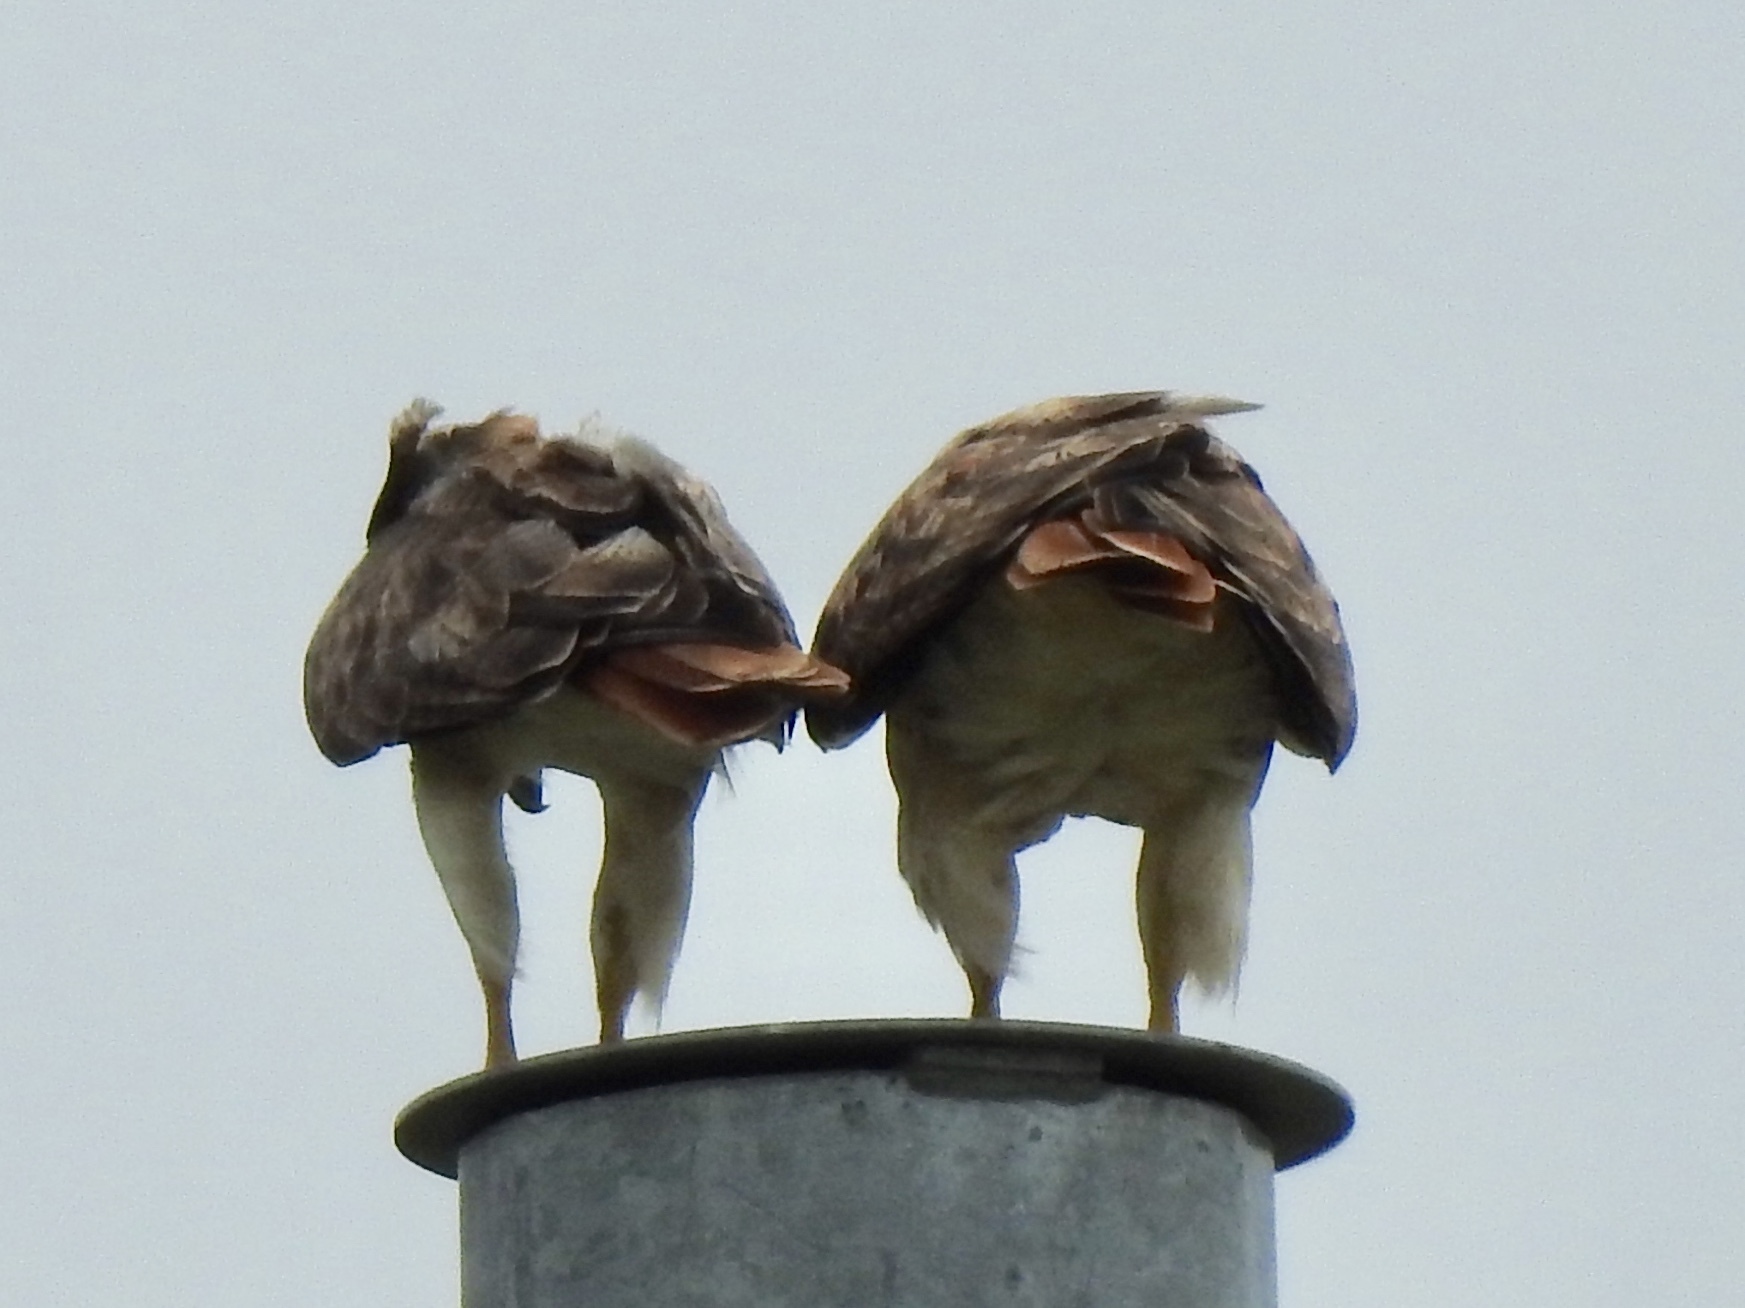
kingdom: Animalia
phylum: Chordata
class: Aves
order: Accipitriformes
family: Accipitridae
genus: Buteo
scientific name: Buteo jamaicensis
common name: Red-tailed hawk
